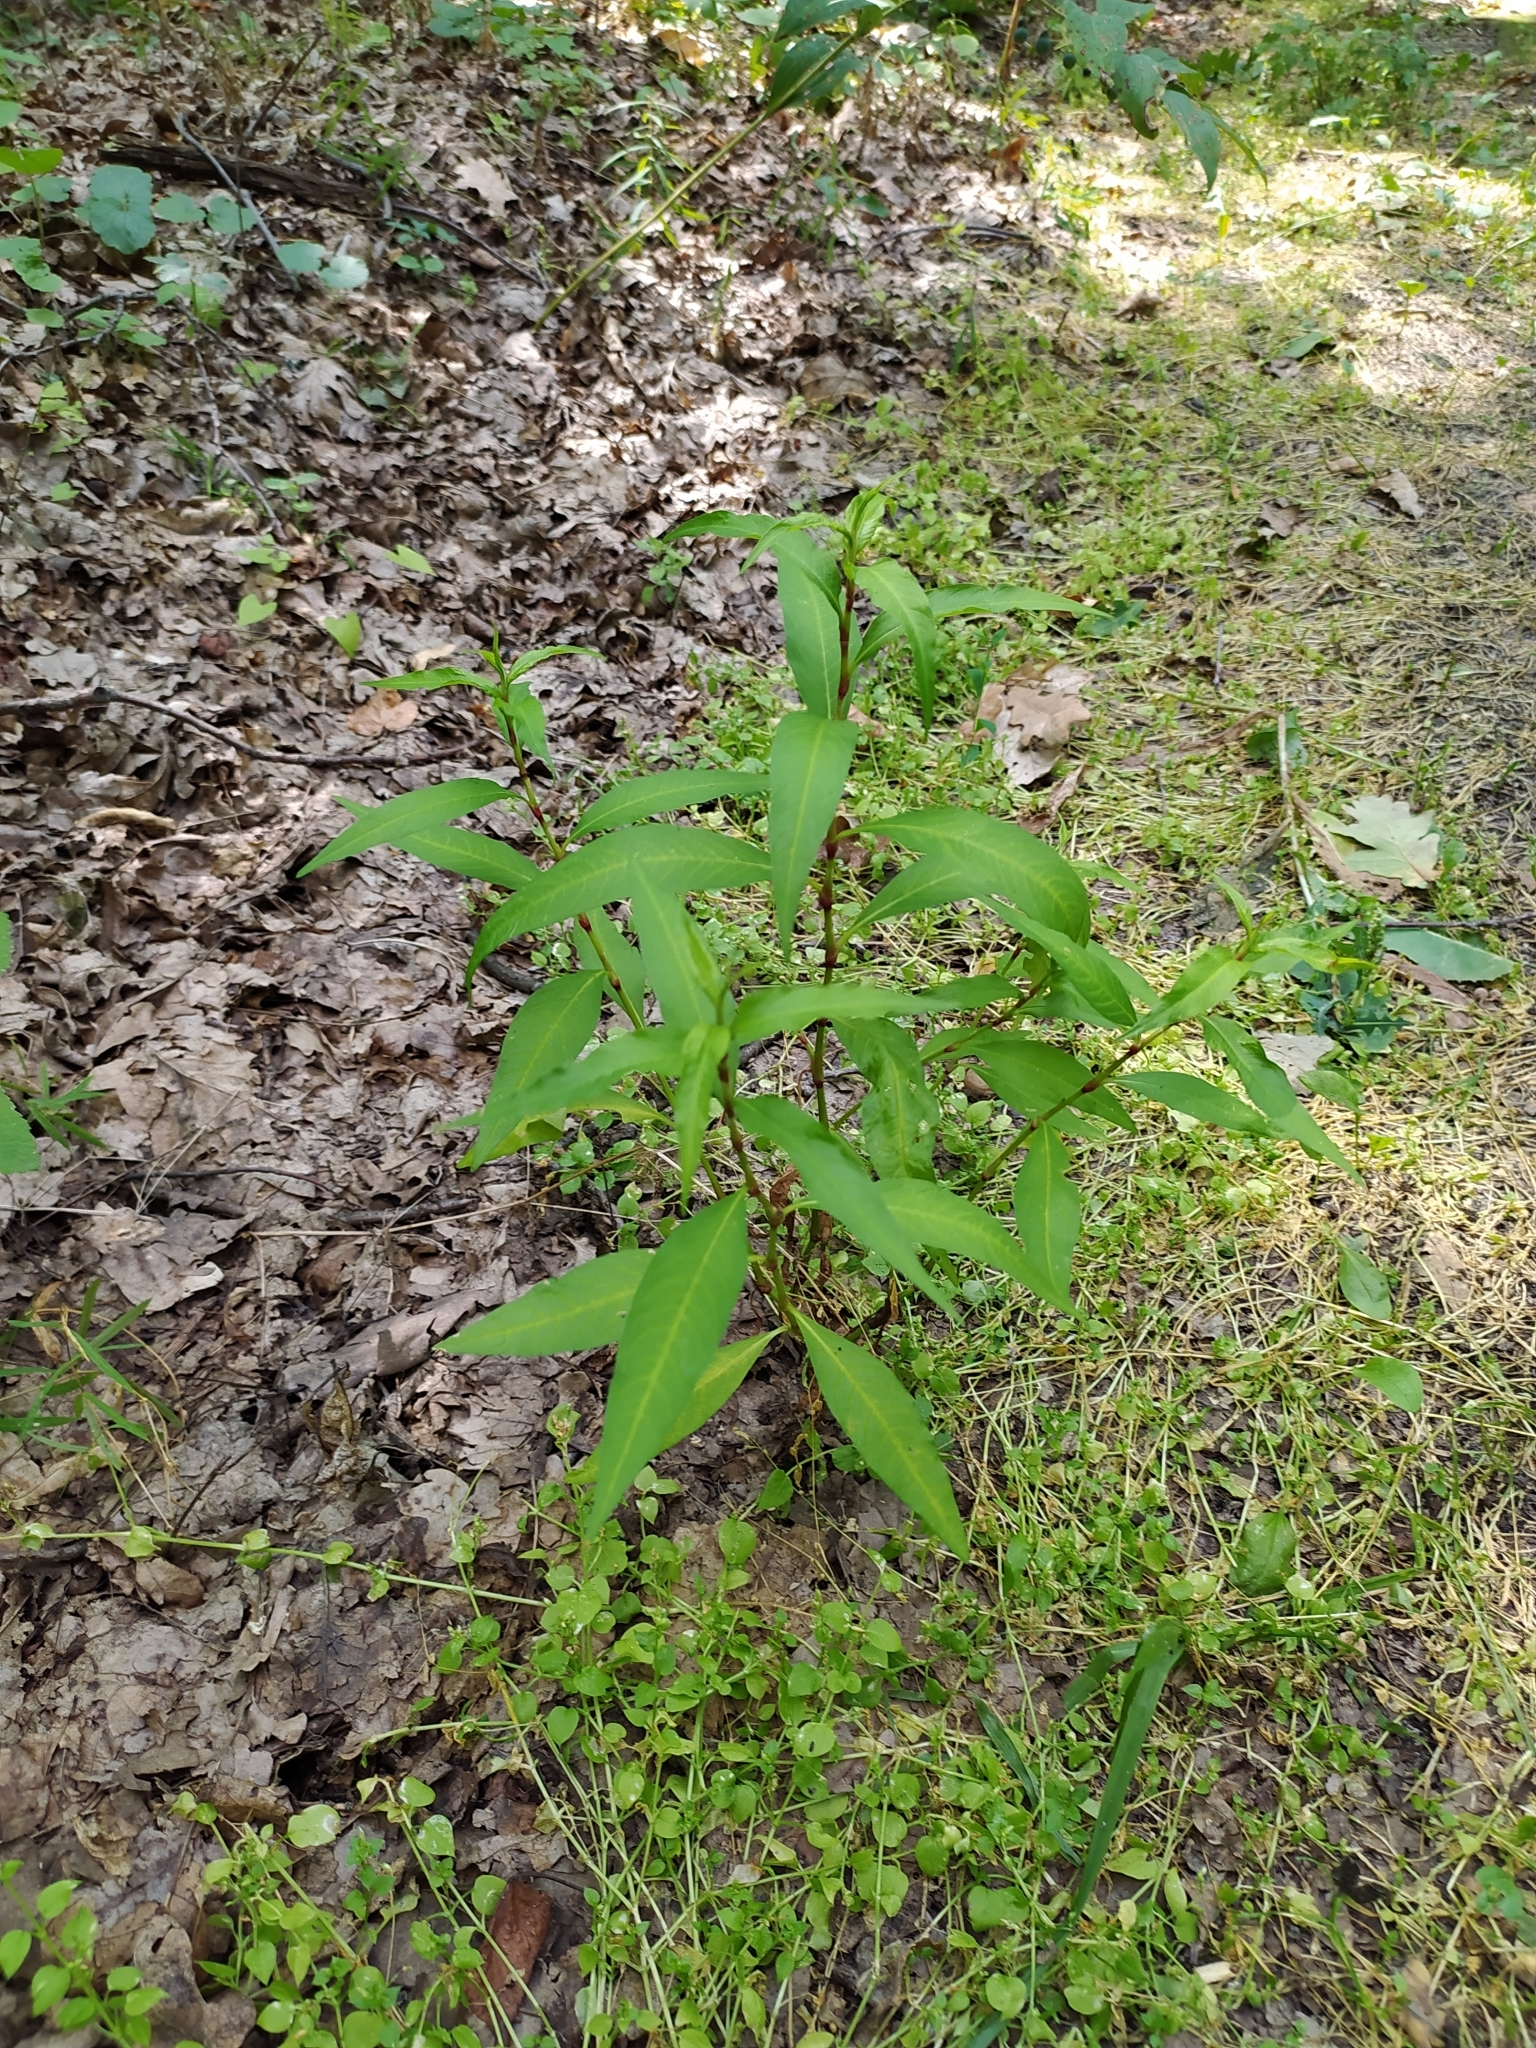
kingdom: Plantae
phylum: Tracheophyta
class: Magnoliopsida
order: Caryophyllales
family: Polygonaceae
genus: Persicaria
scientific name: Persicaria hydropiper
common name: Water-pepper
